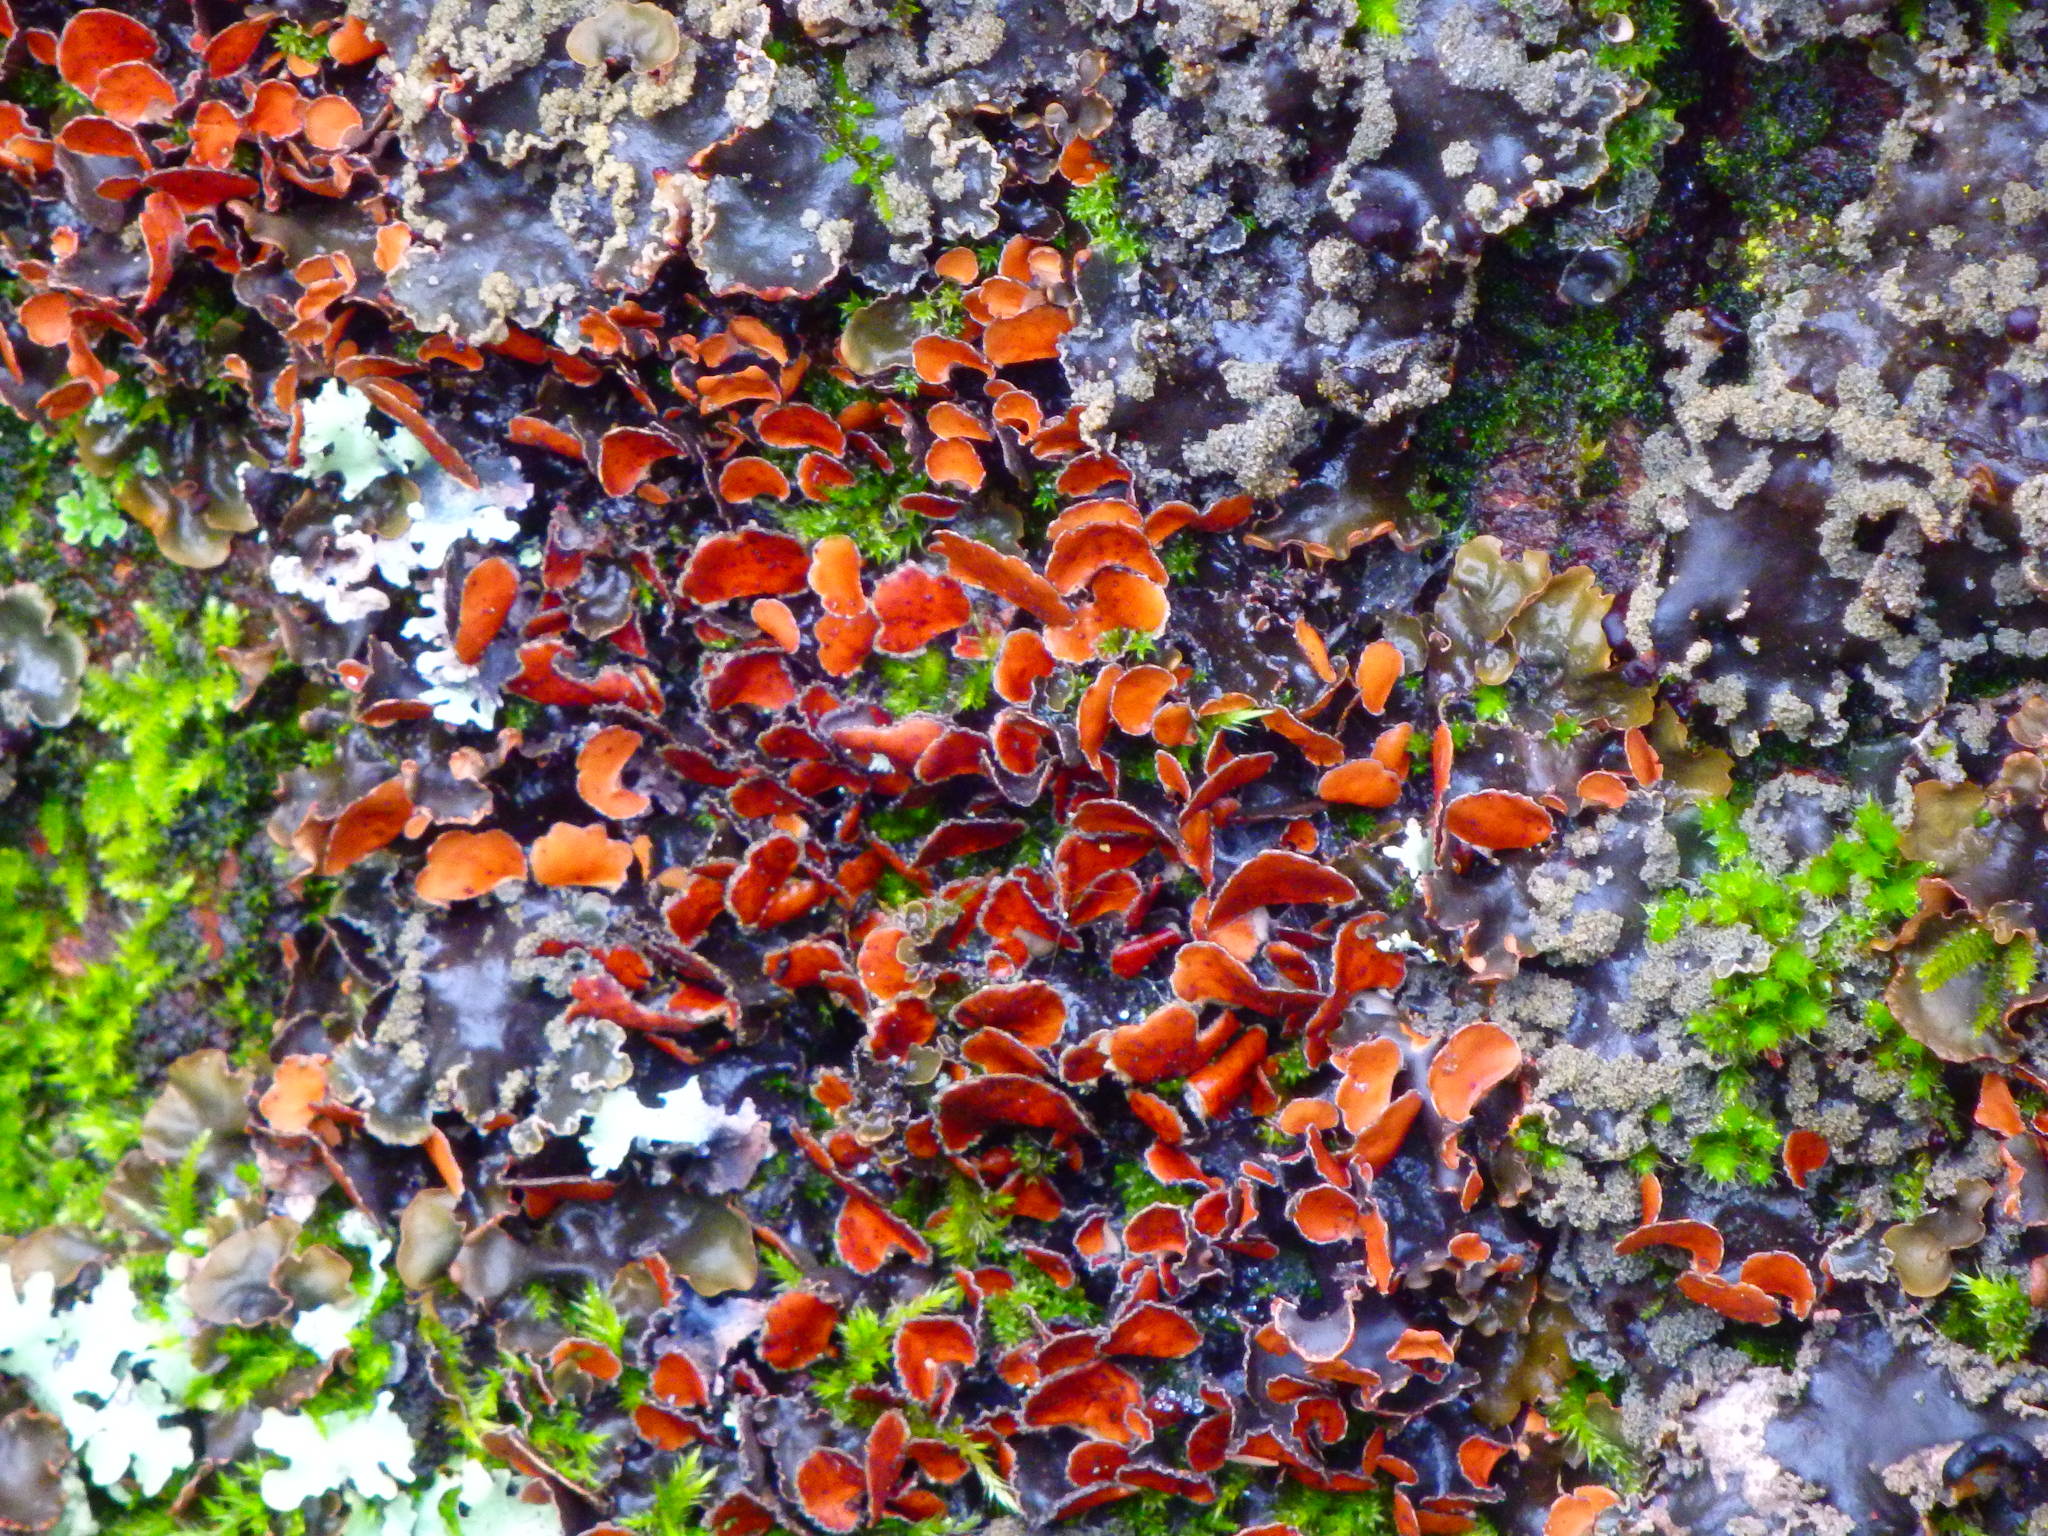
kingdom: Fungi
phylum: Ascomycota
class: Lecanoromycetes
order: Peltigerales
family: Nephromataceae
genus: Nephroma
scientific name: Nephroma laevigatum
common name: Mustard kidney lichen
